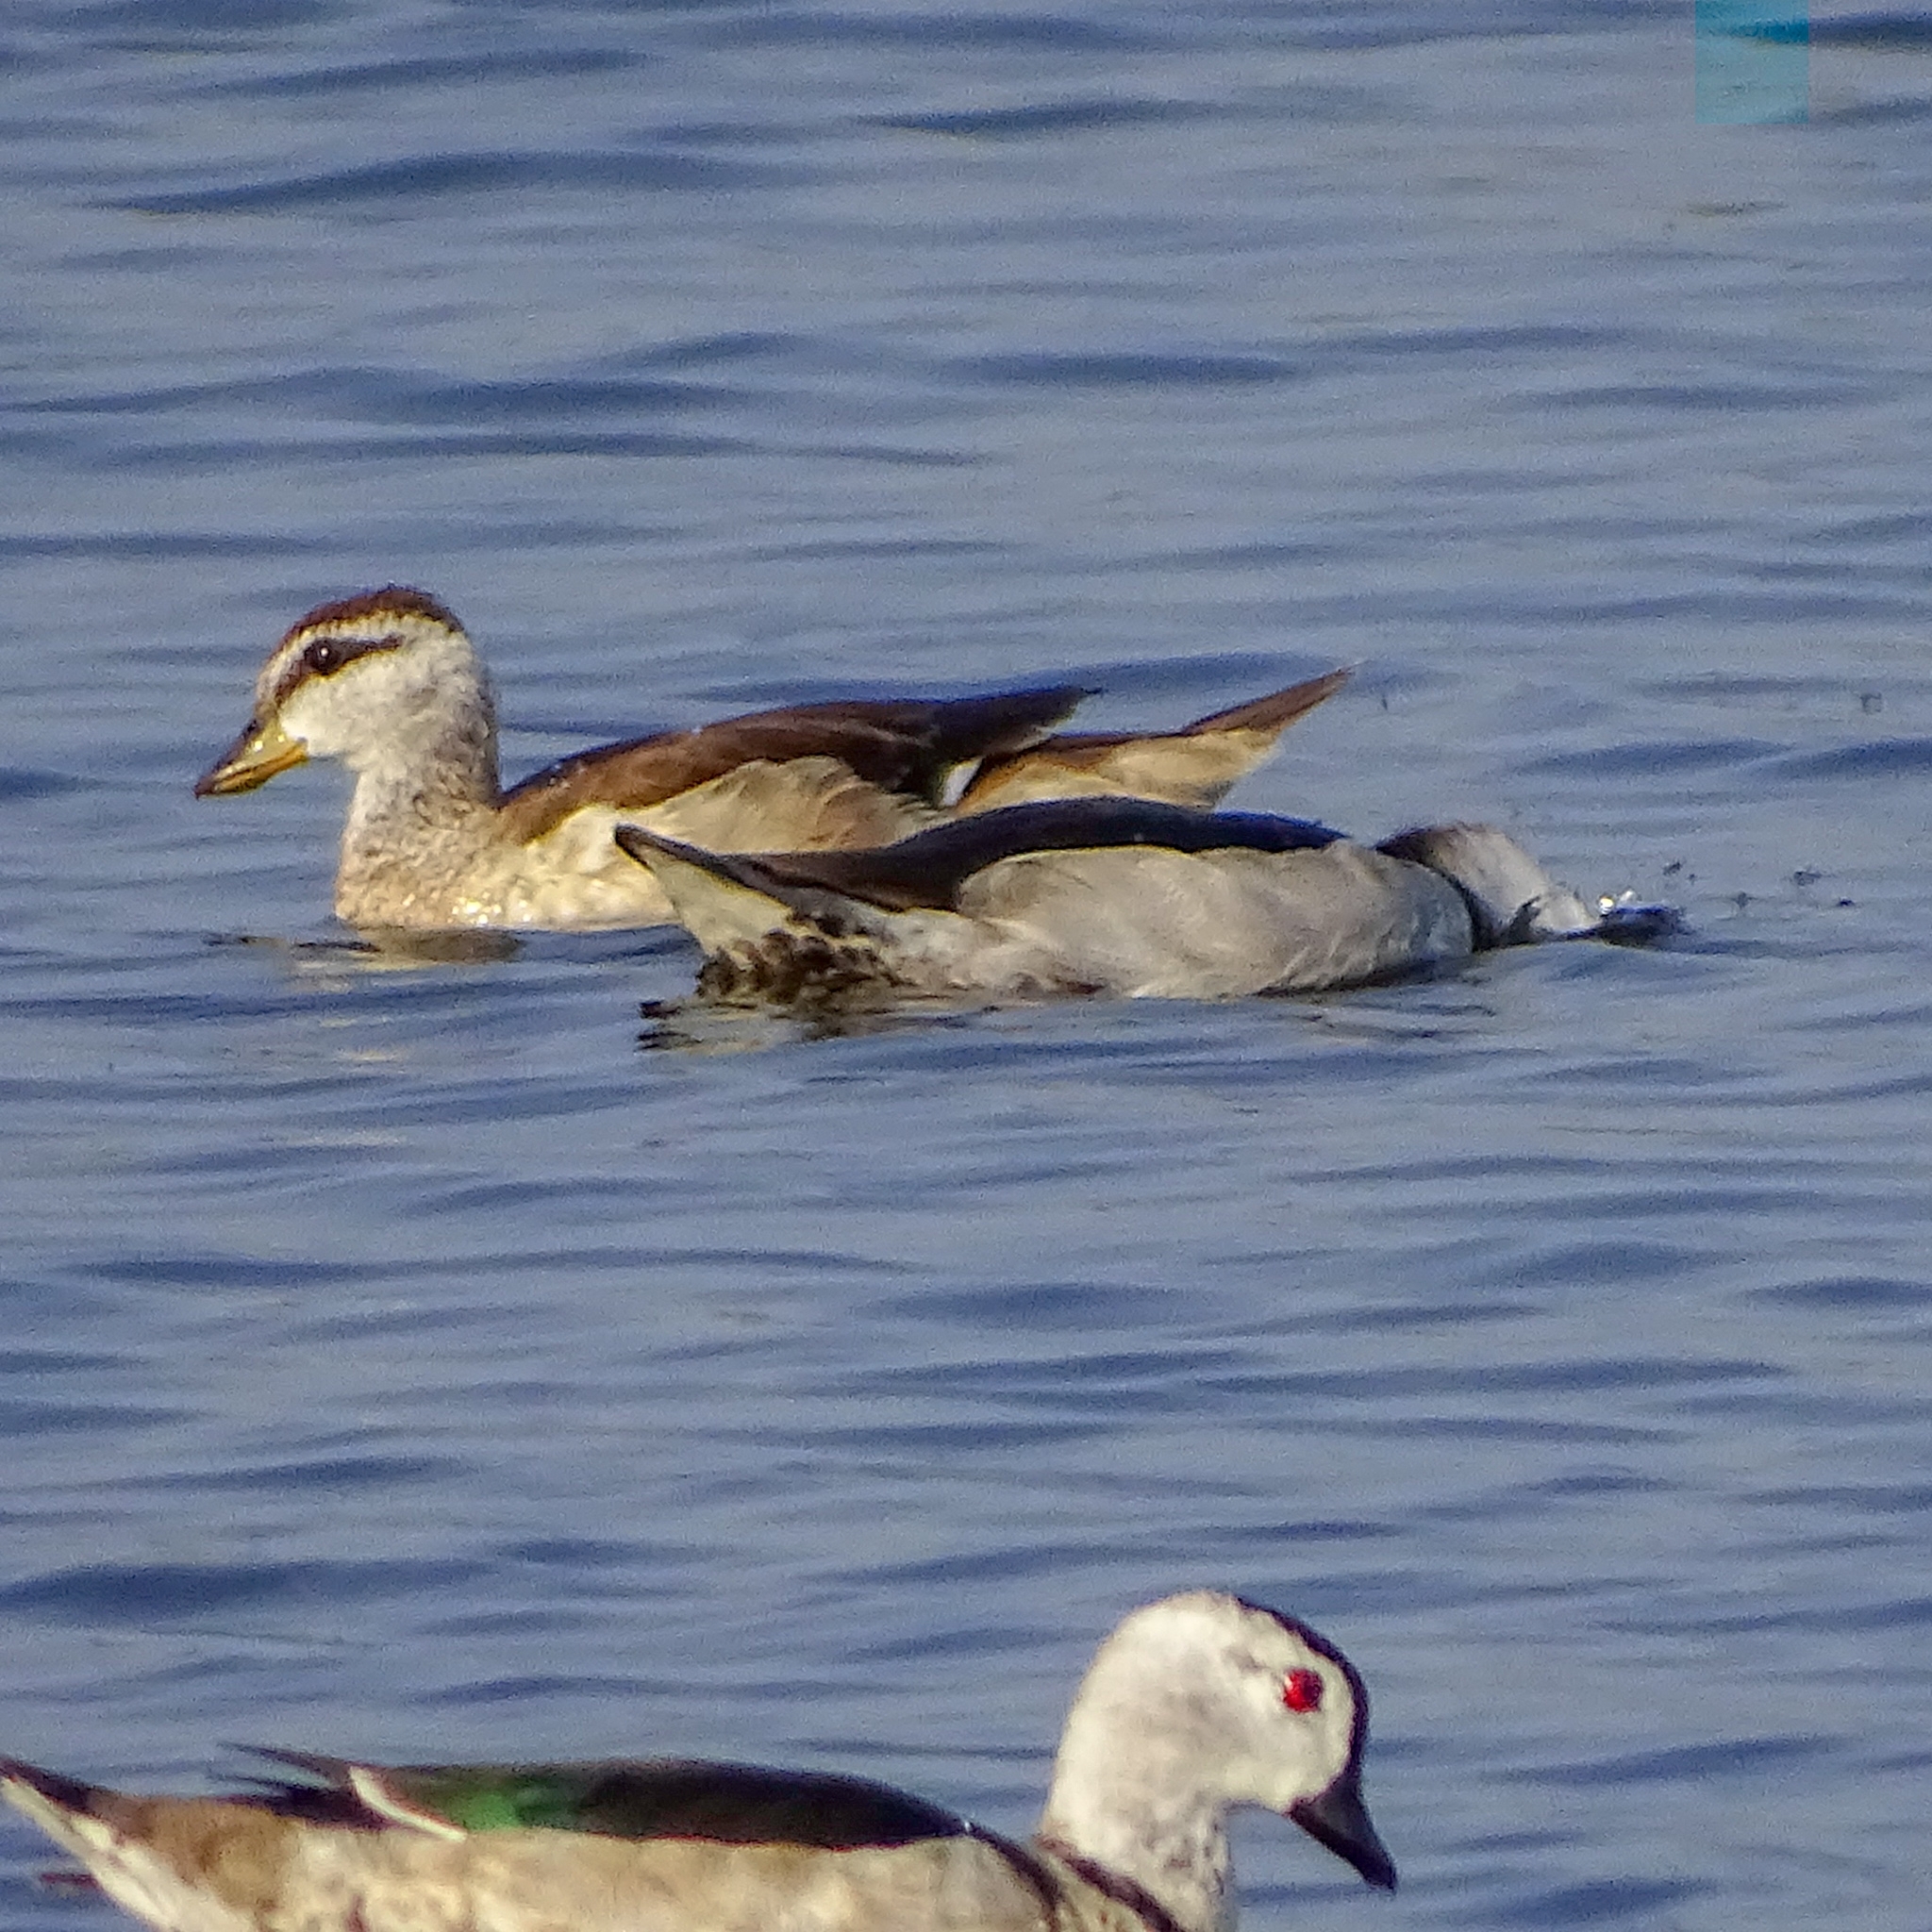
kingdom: Animalia
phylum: Chordata
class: Aves
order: Anseriformes
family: Anatidae
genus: Nettapus
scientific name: Nettapus coromandelianus
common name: Cotton pygmy-goose
